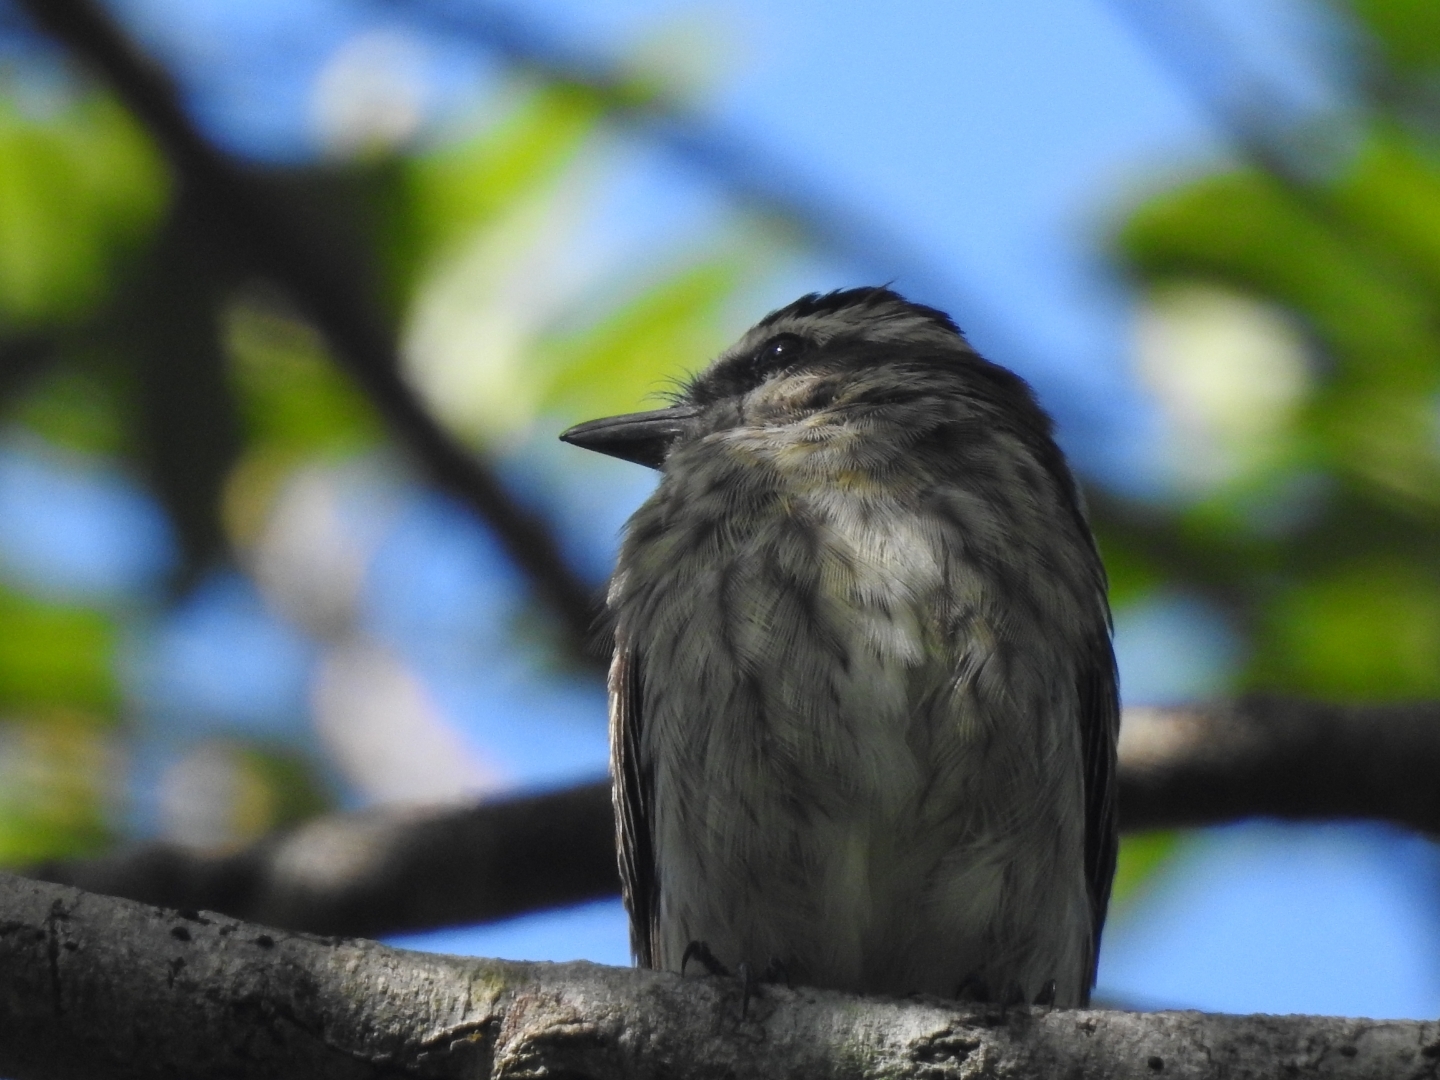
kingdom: Animalia
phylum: Chordata
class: Aves
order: Passeriformes
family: Tyrannidae
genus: Empidonomus
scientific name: Empidonomus varius
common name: Variegated flycatcher
